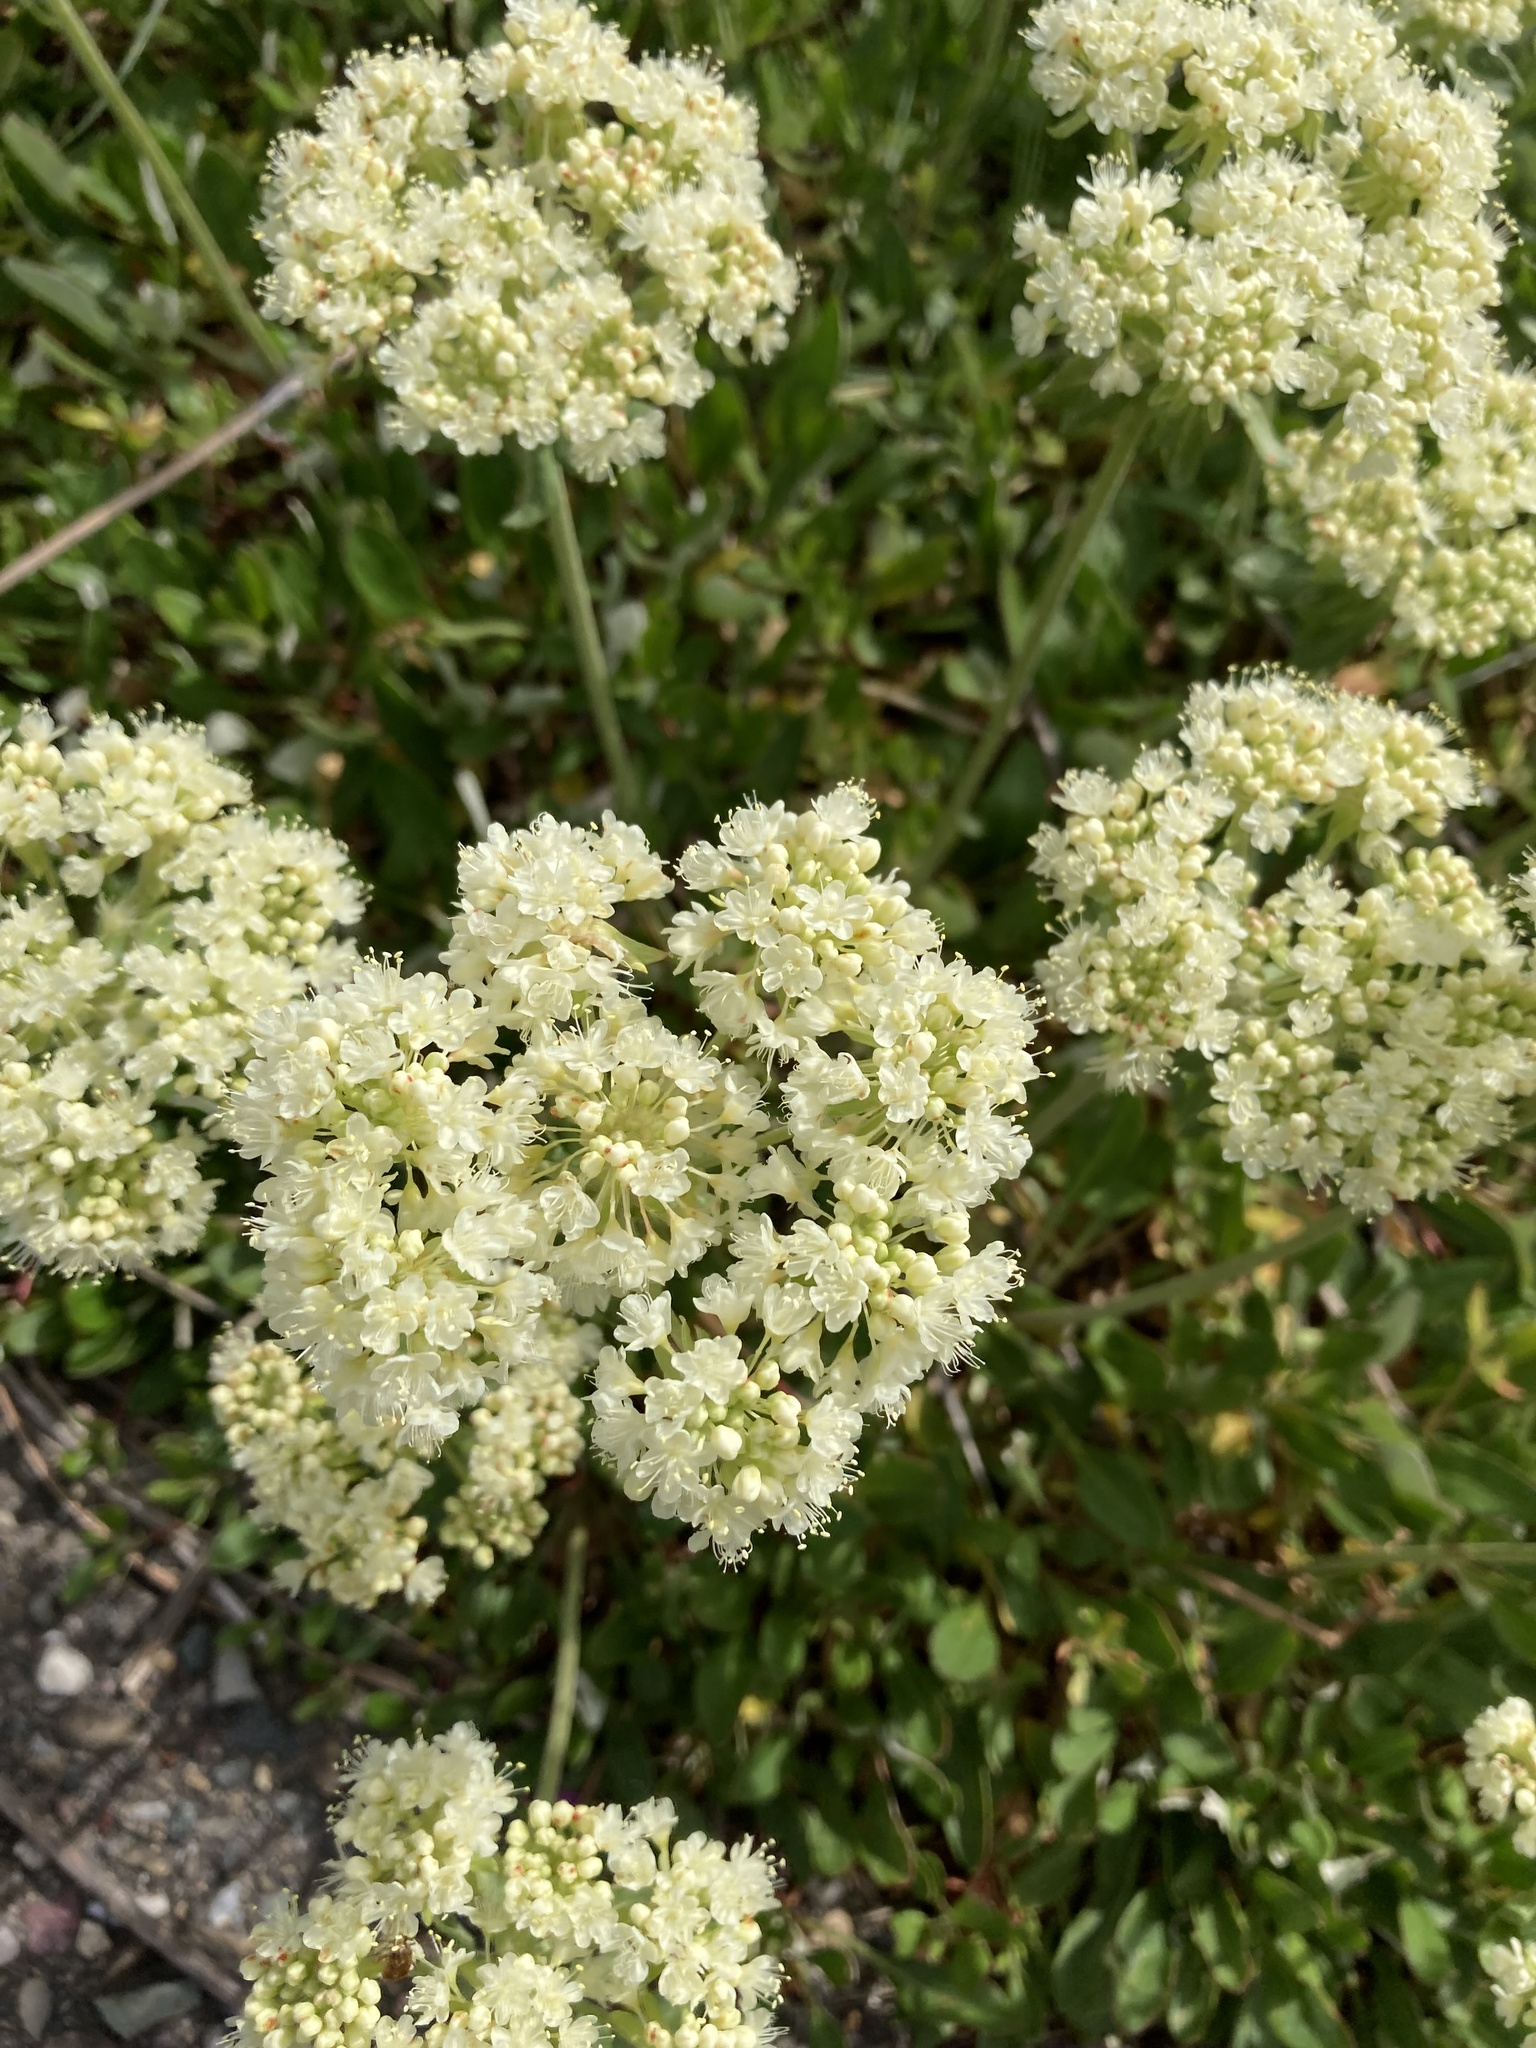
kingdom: Plantae
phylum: Tracheophyta
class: Magnoliopsida
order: Caryophyllales
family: Polygonaceae
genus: Eriogonum
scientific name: Eriogonum umbellatum
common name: Sulfur-buckwheat
